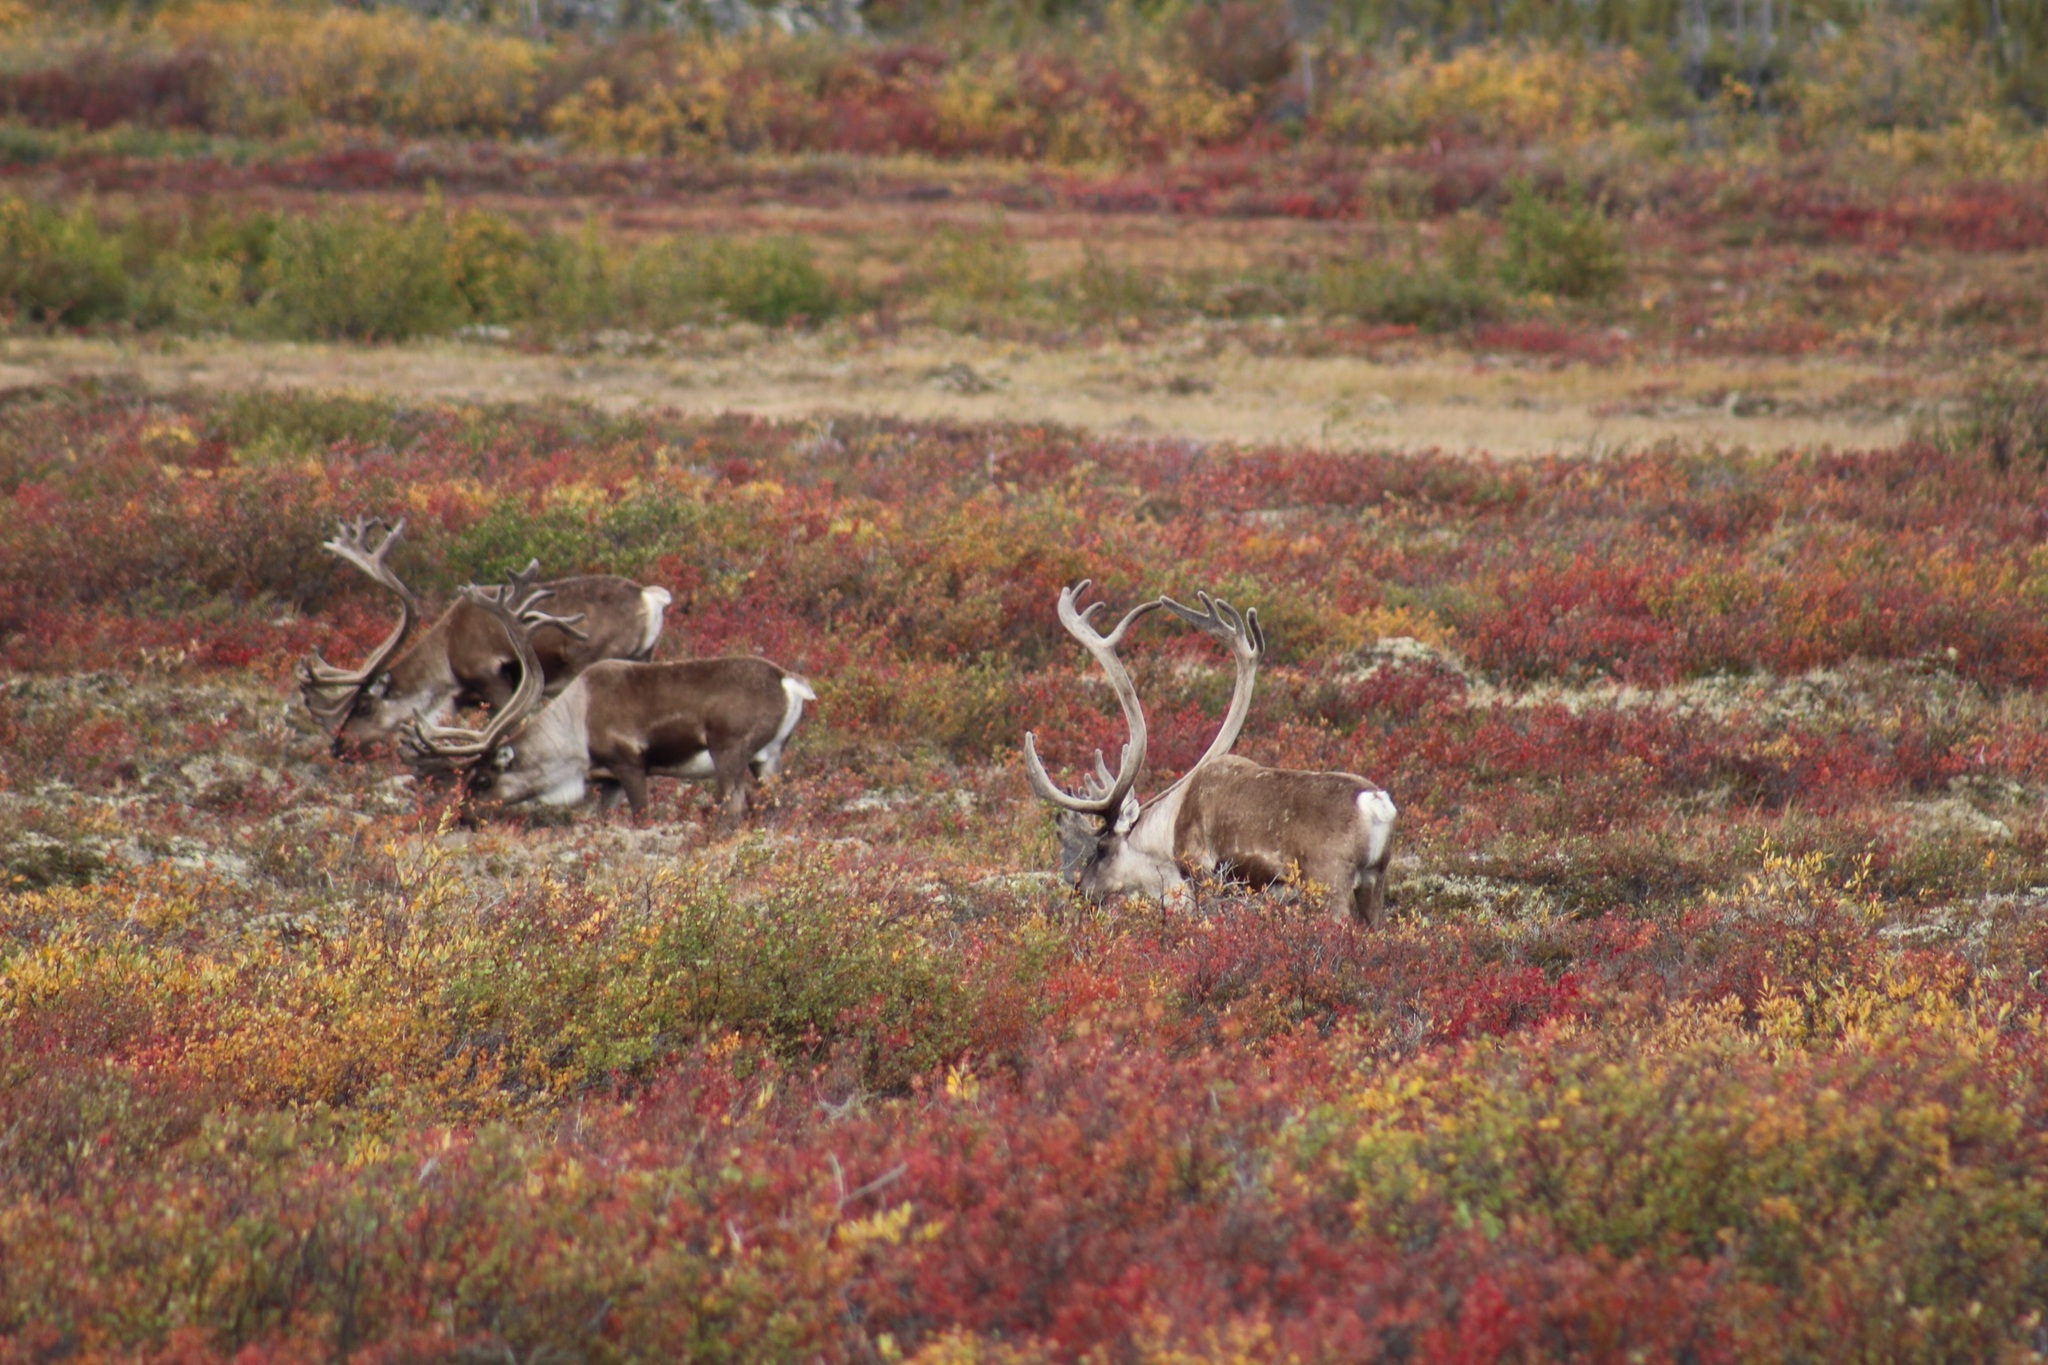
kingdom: Animalia
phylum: Chordata
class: Mammalia
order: Artiodactyla
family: Cervidae
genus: Rangifer
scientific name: Rangifer tarandus
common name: Reindeer
